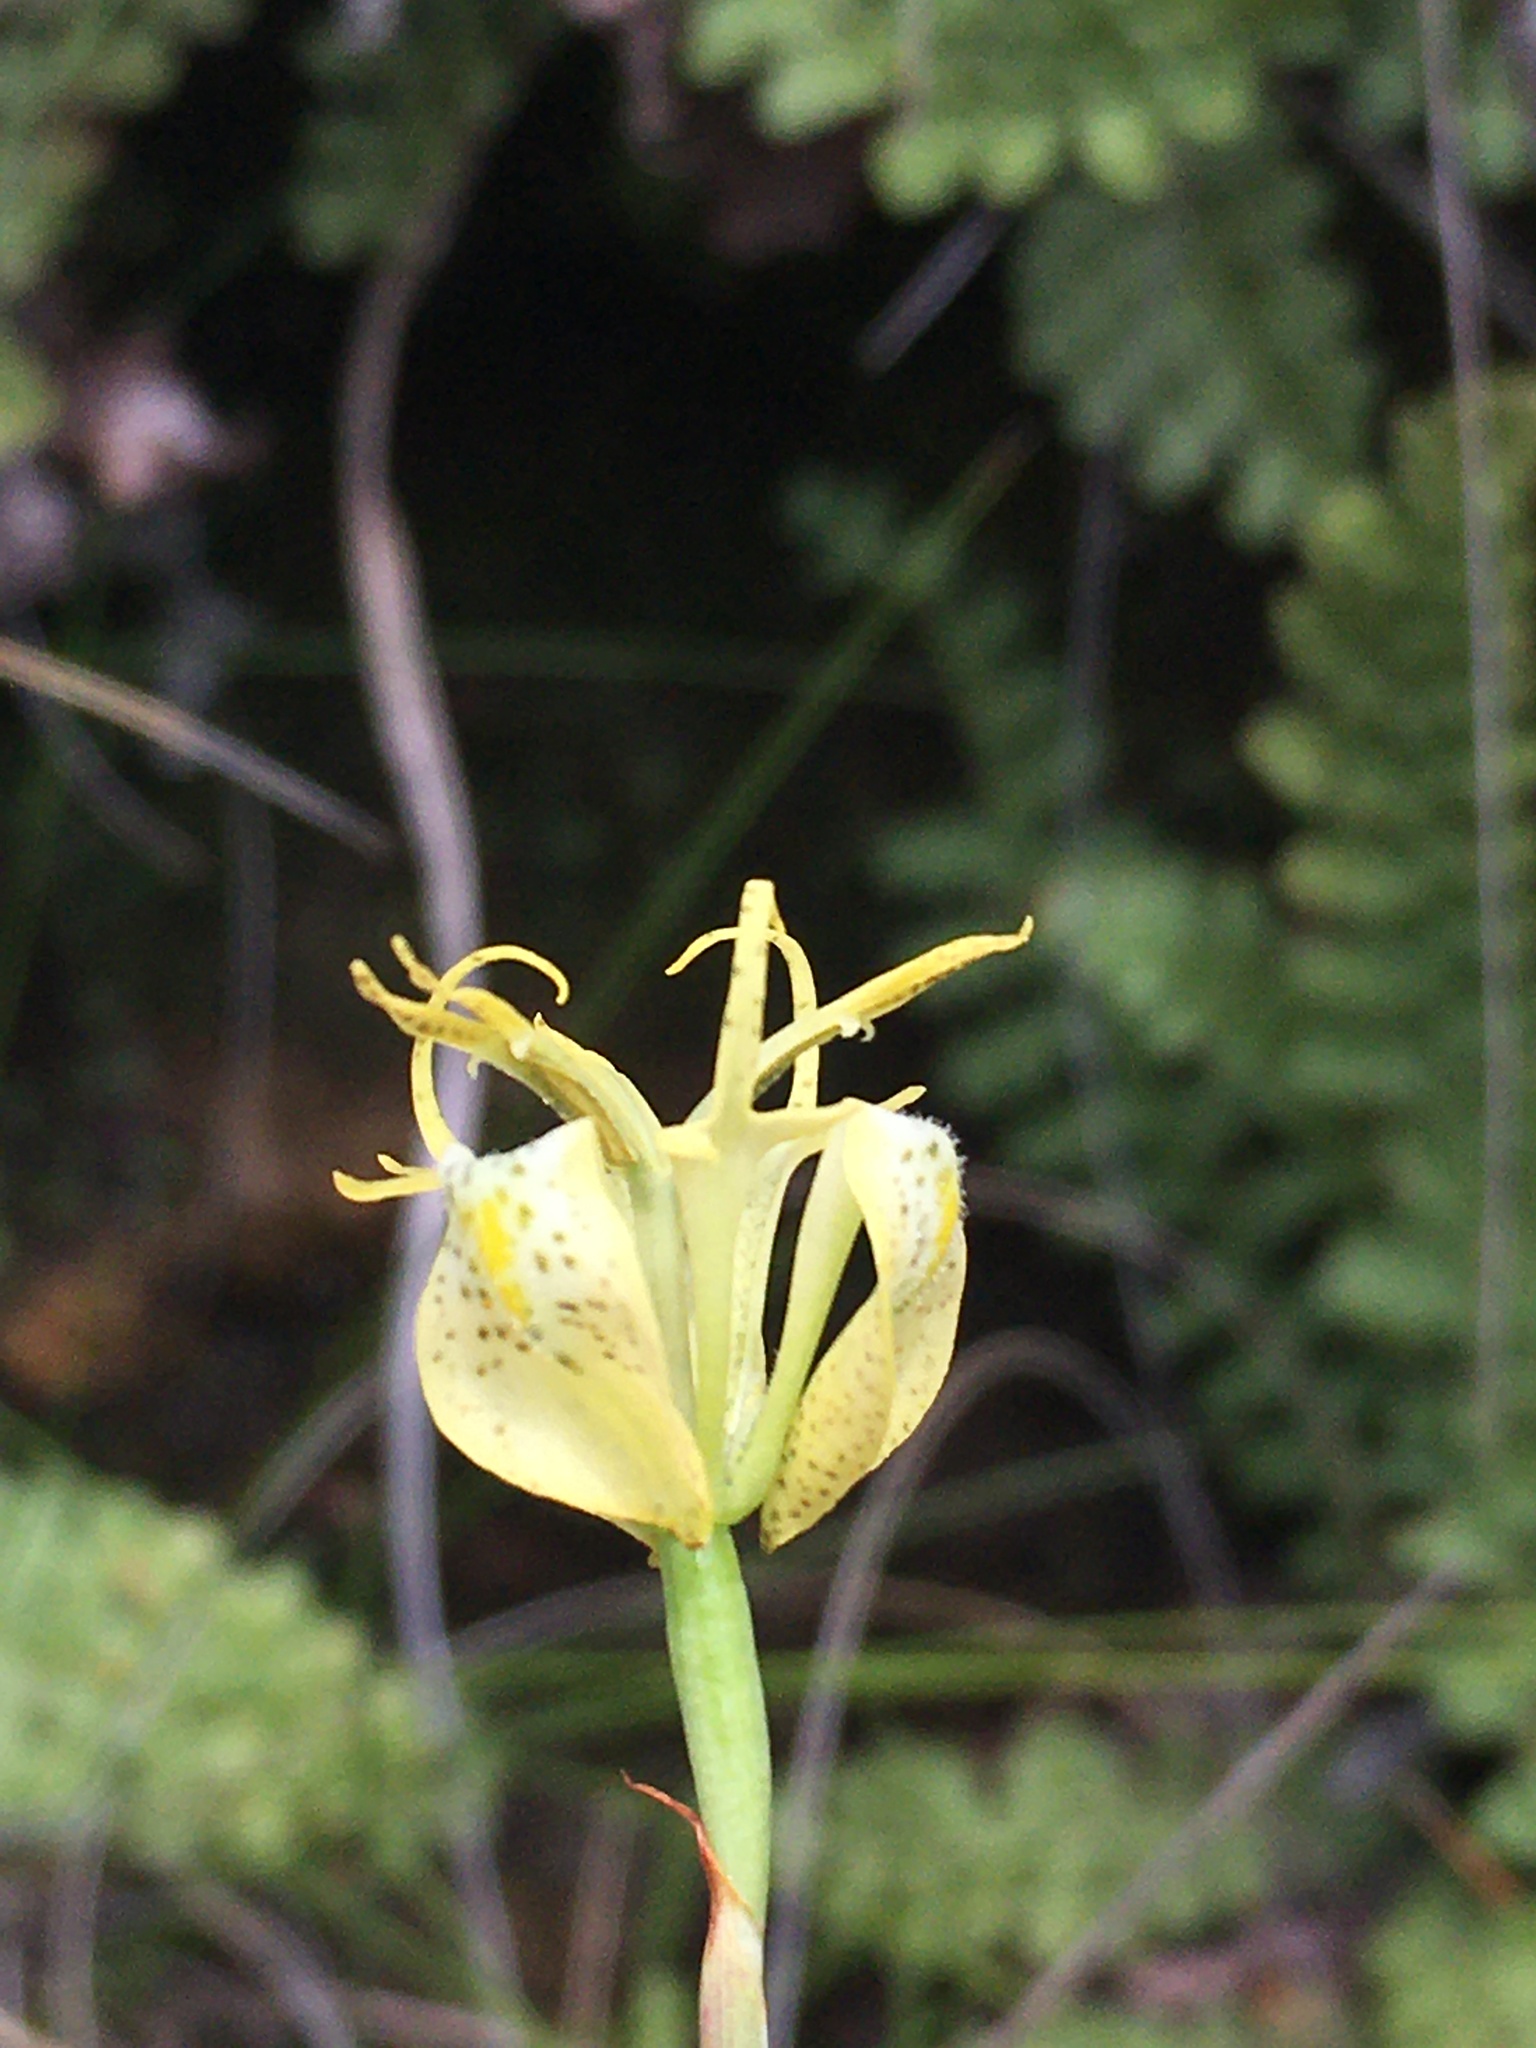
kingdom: Plantae
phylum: Tracheophyta
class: Liliopsida
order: Asparagales
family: Iridaceae
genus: Moraea
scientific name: Moraea trifida
